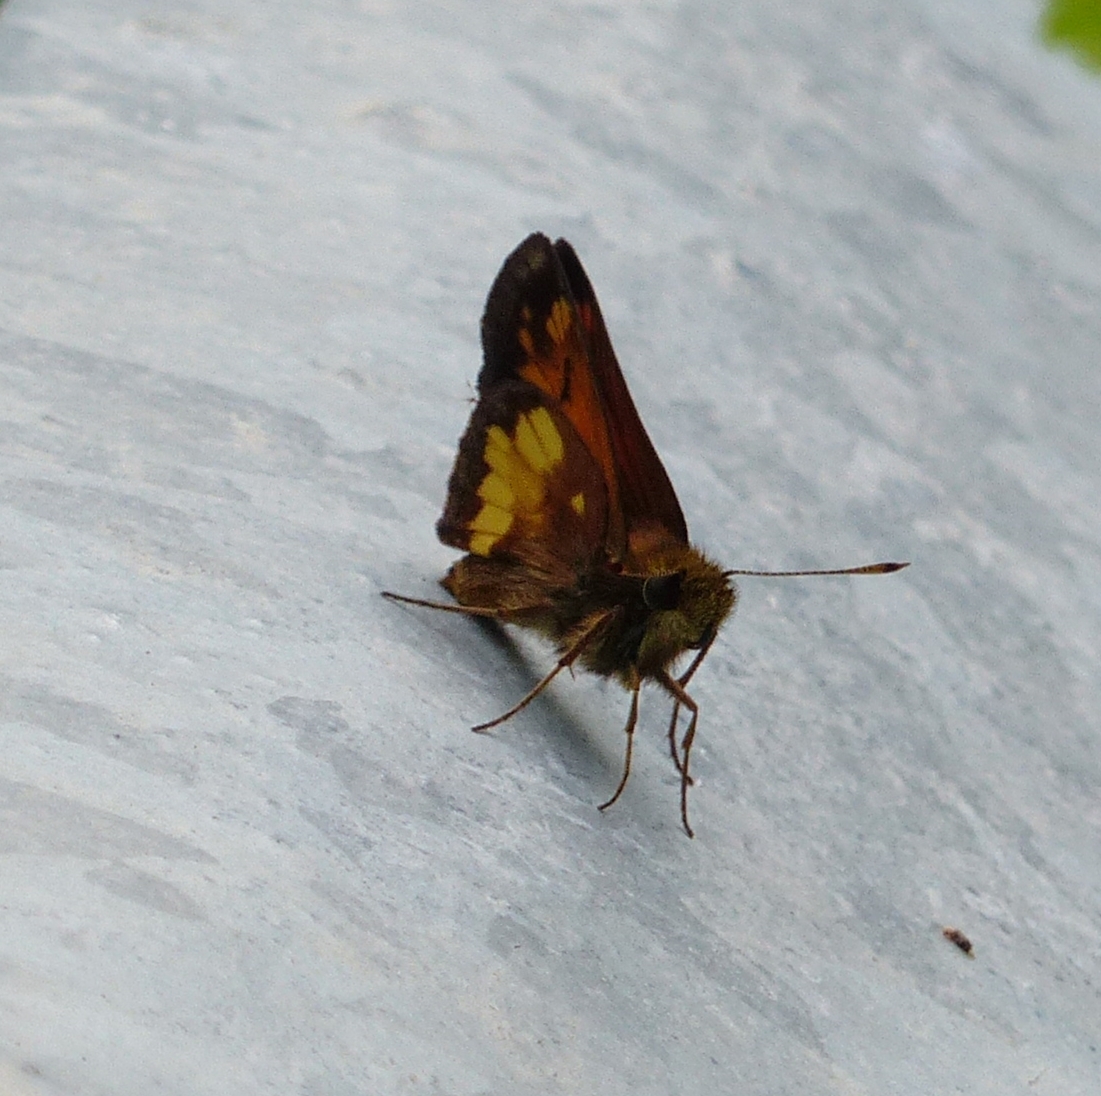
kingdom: Animalia
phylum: Arthropoda
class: Insecta
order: Lepidoptera
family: Hesperiidae
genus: Lon
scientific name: Lon hobomok
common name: Hobomok skipper
